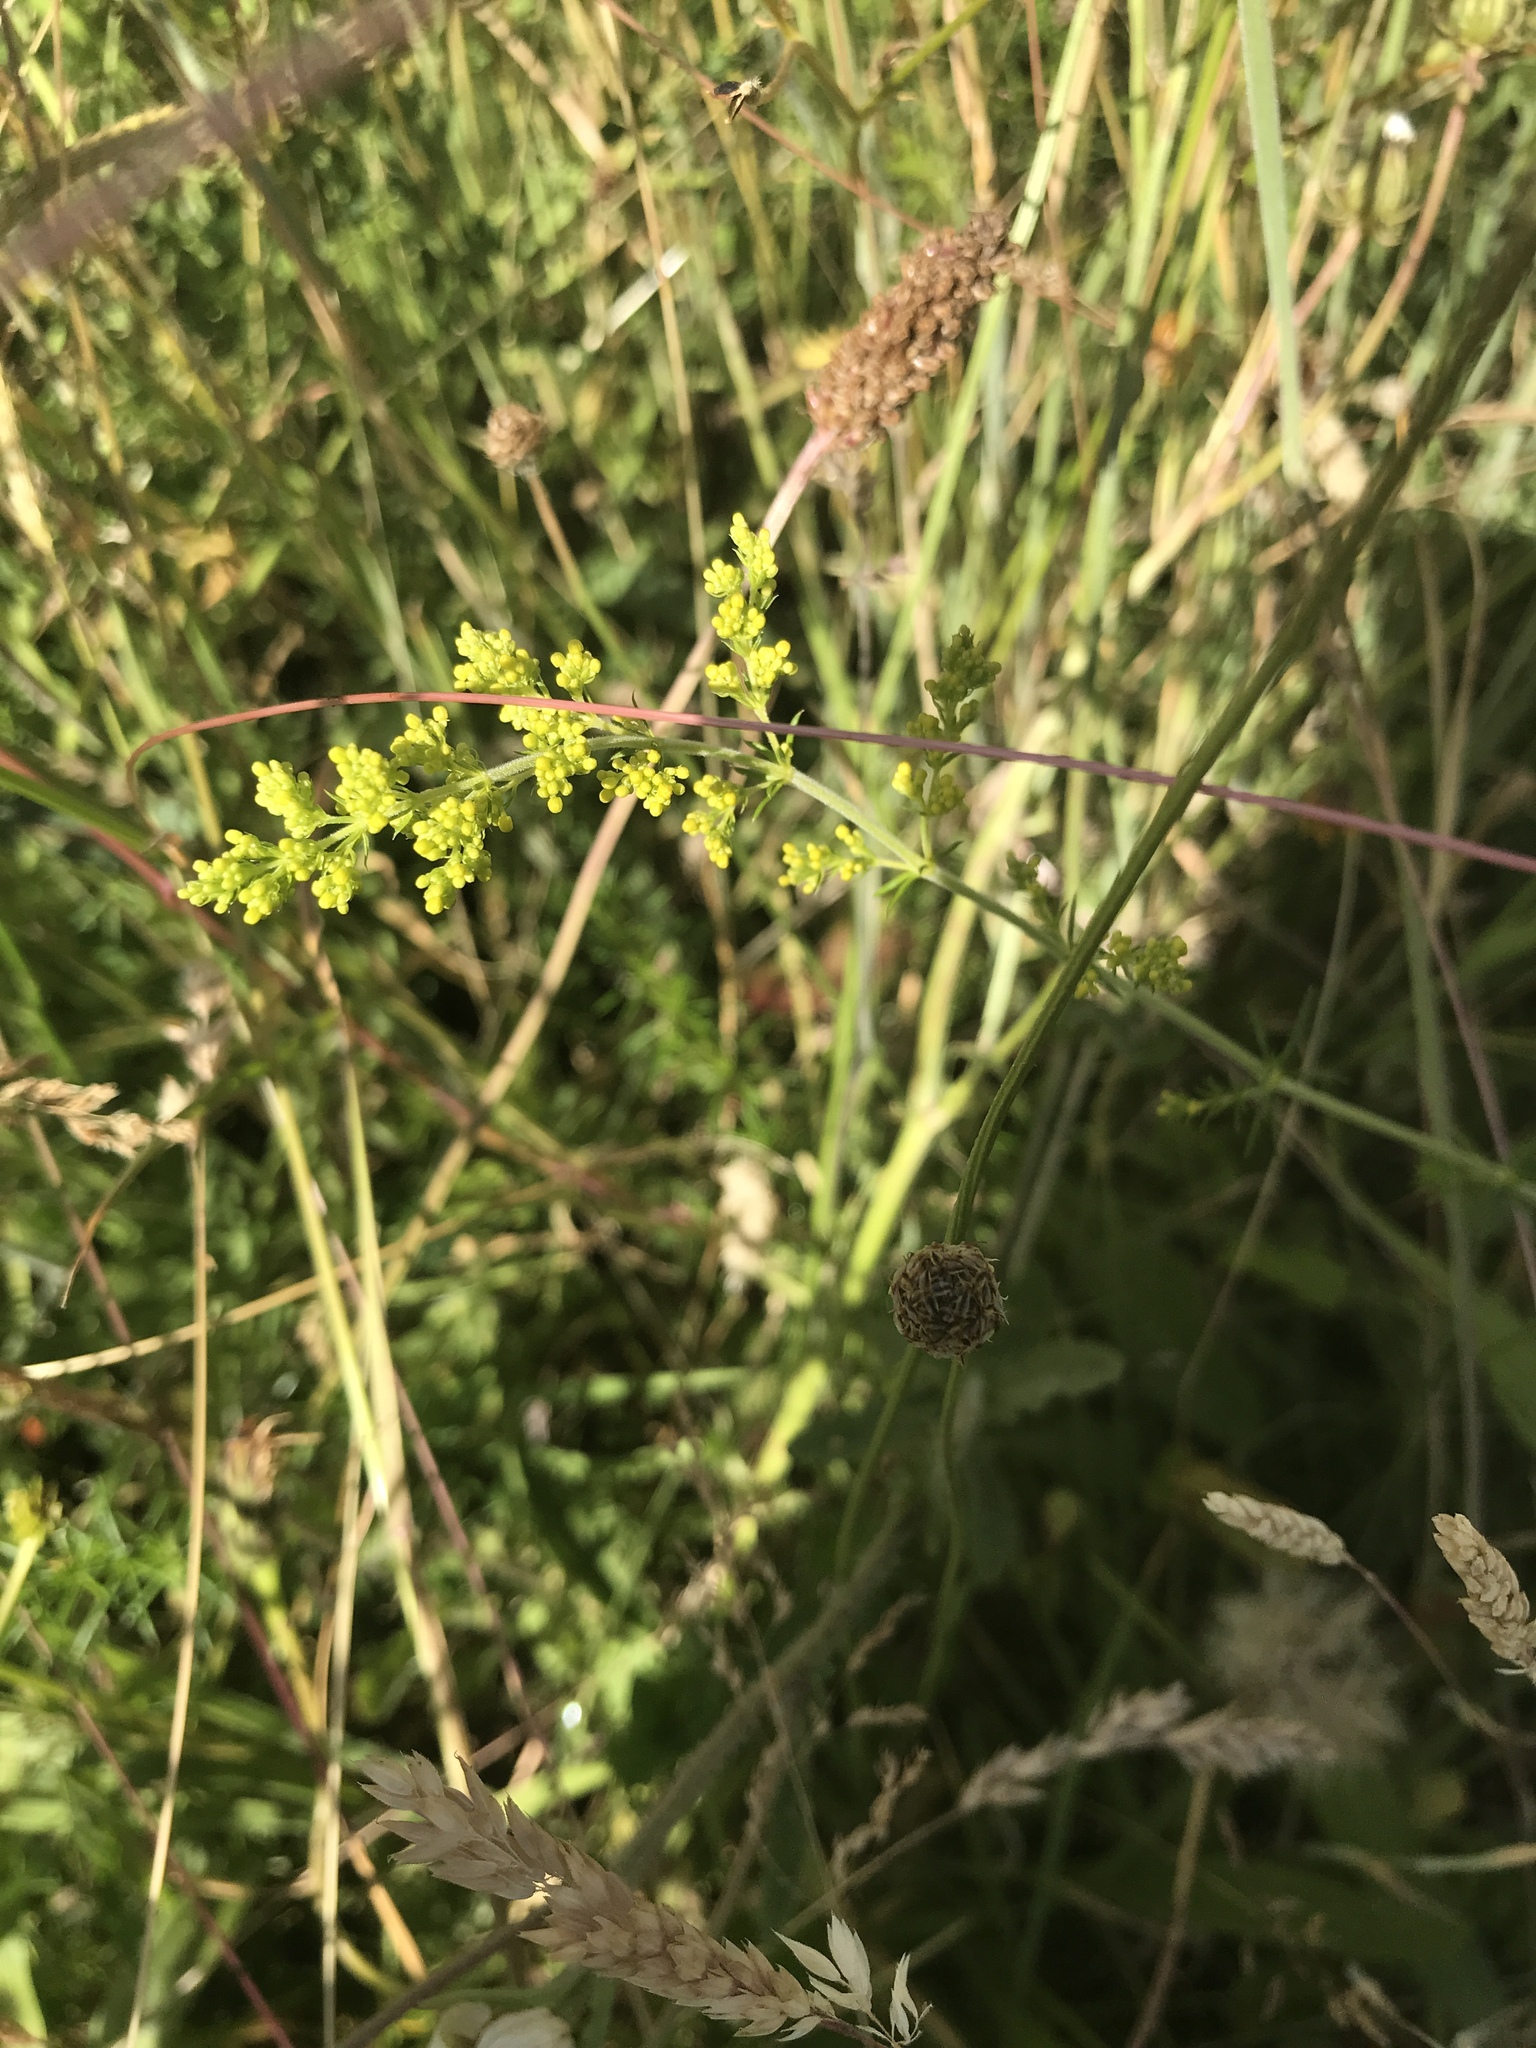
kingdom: Plantae
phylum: Tracheophyta
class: Magnoliopsida
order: Gentianales
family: Rubiaceae
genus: Galium
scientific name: Galium verum
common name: Lady's bedstraw
